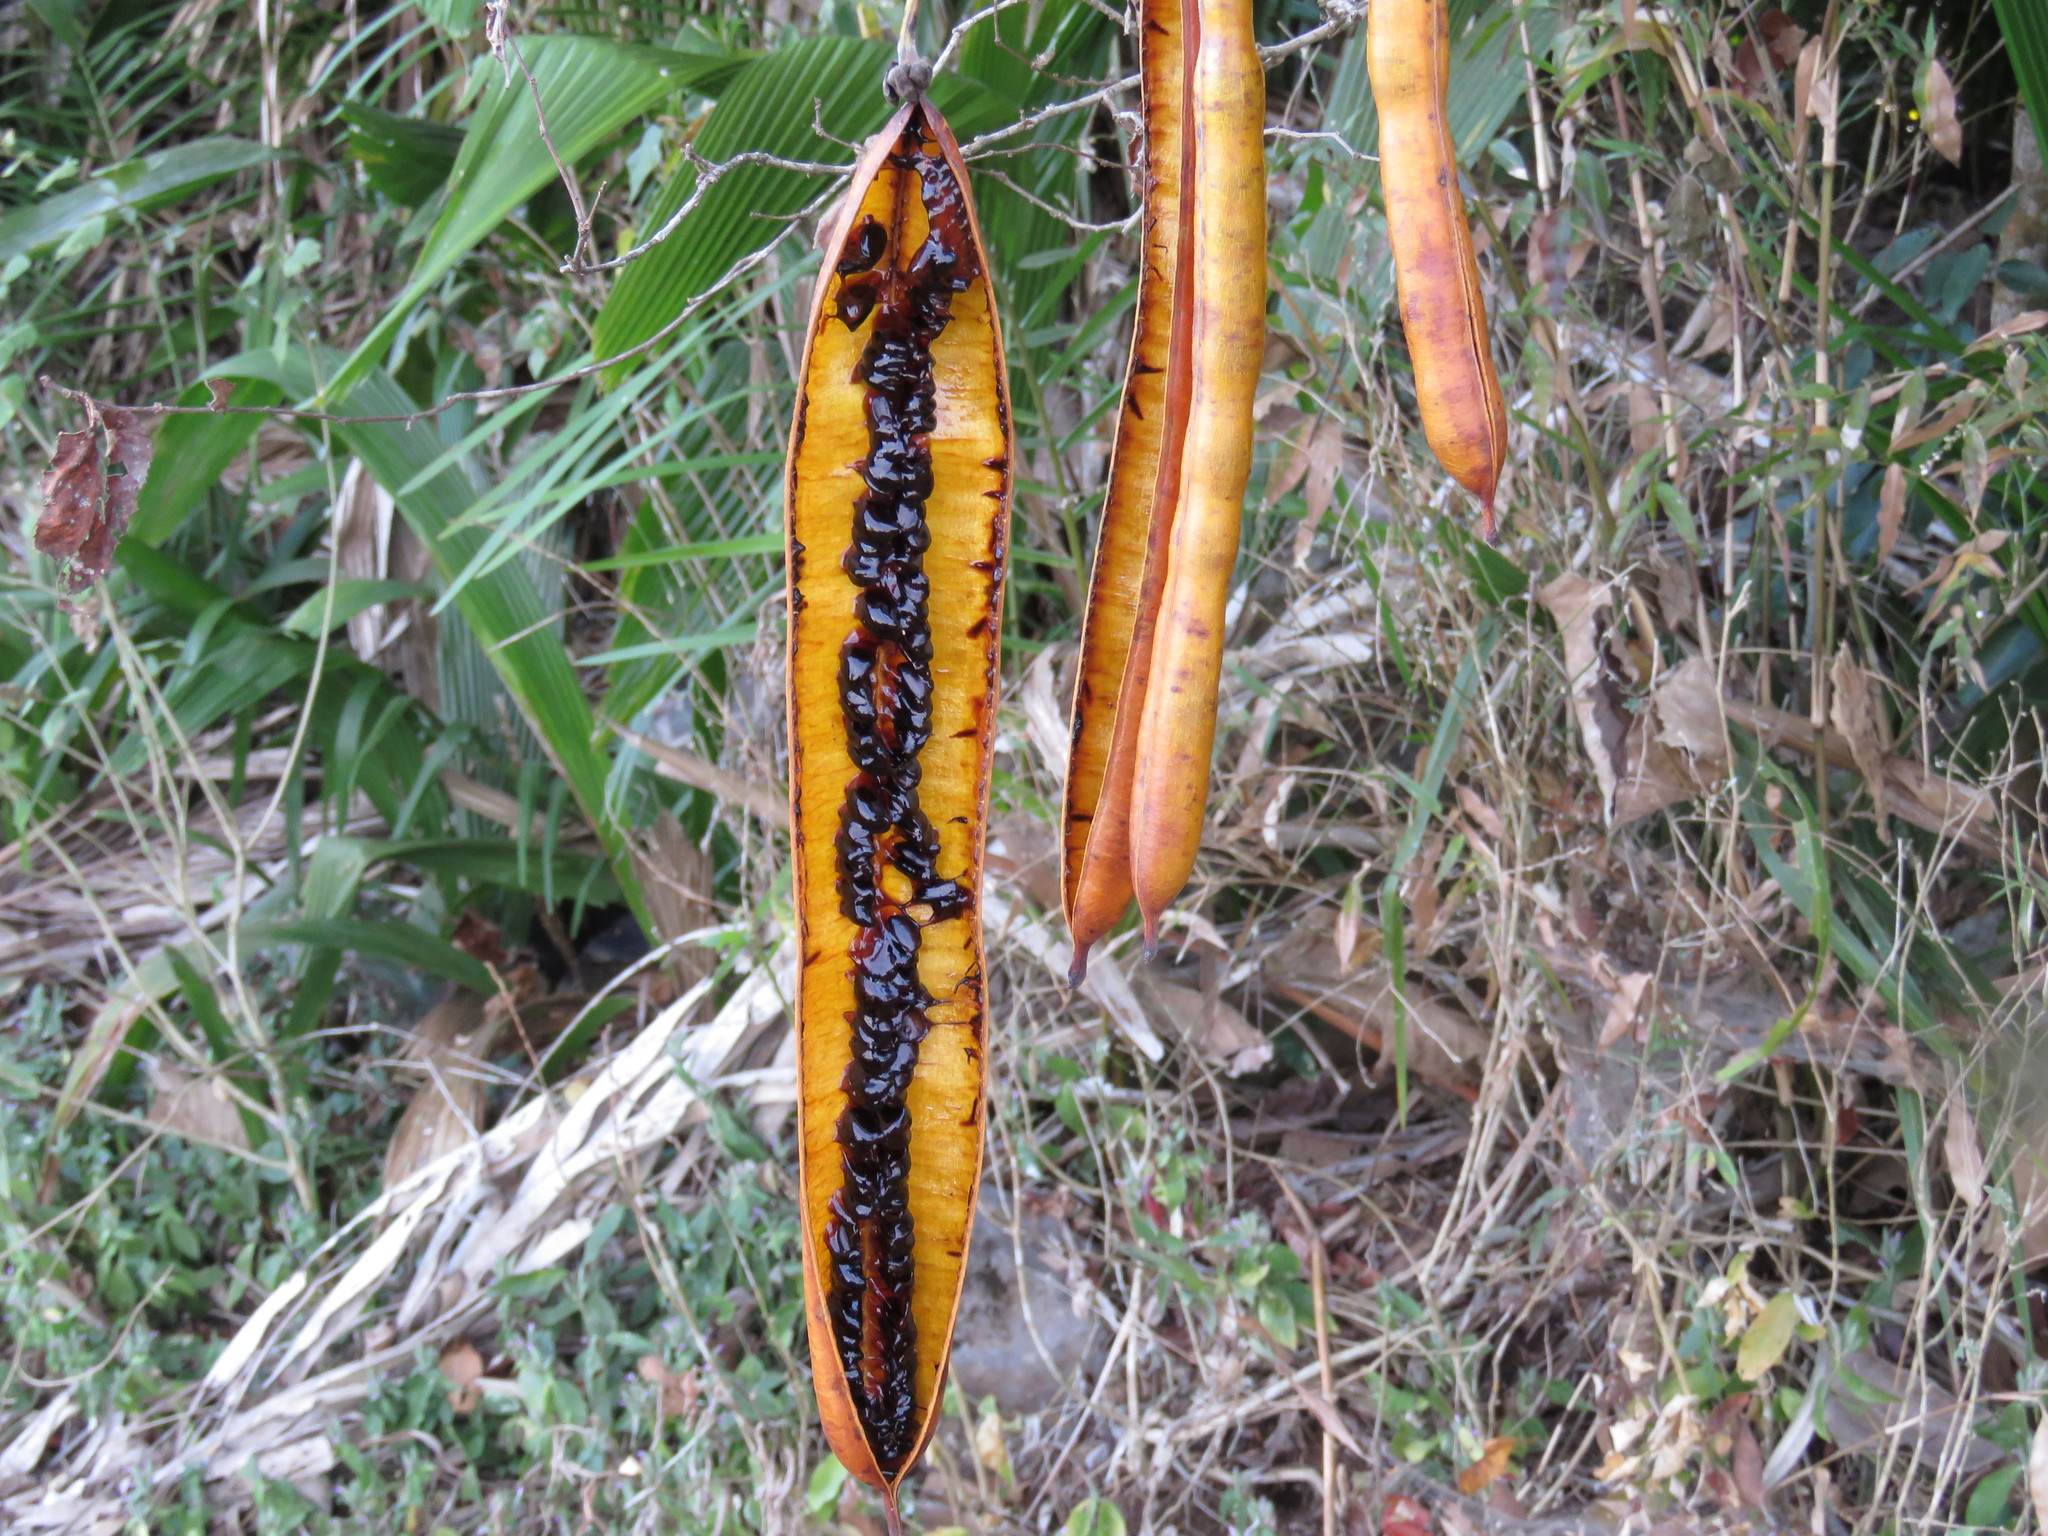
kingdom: Plantae
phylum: Tracheophyta
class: Magnoliopsida
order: Fabales
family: Fabaceae
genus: Senna
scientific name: Senna quinquangulata
